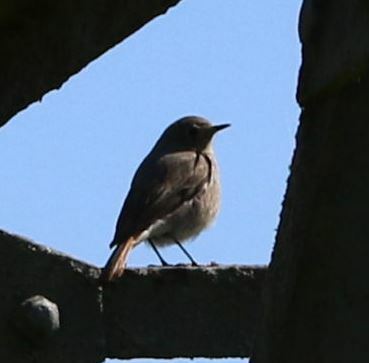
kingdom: Animalia
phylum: Chordata
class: Aves
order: Passeriformes
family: Muscicapidae
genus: Phoenicurus
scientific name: Phoenicurus ochruros
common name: Black redstart
